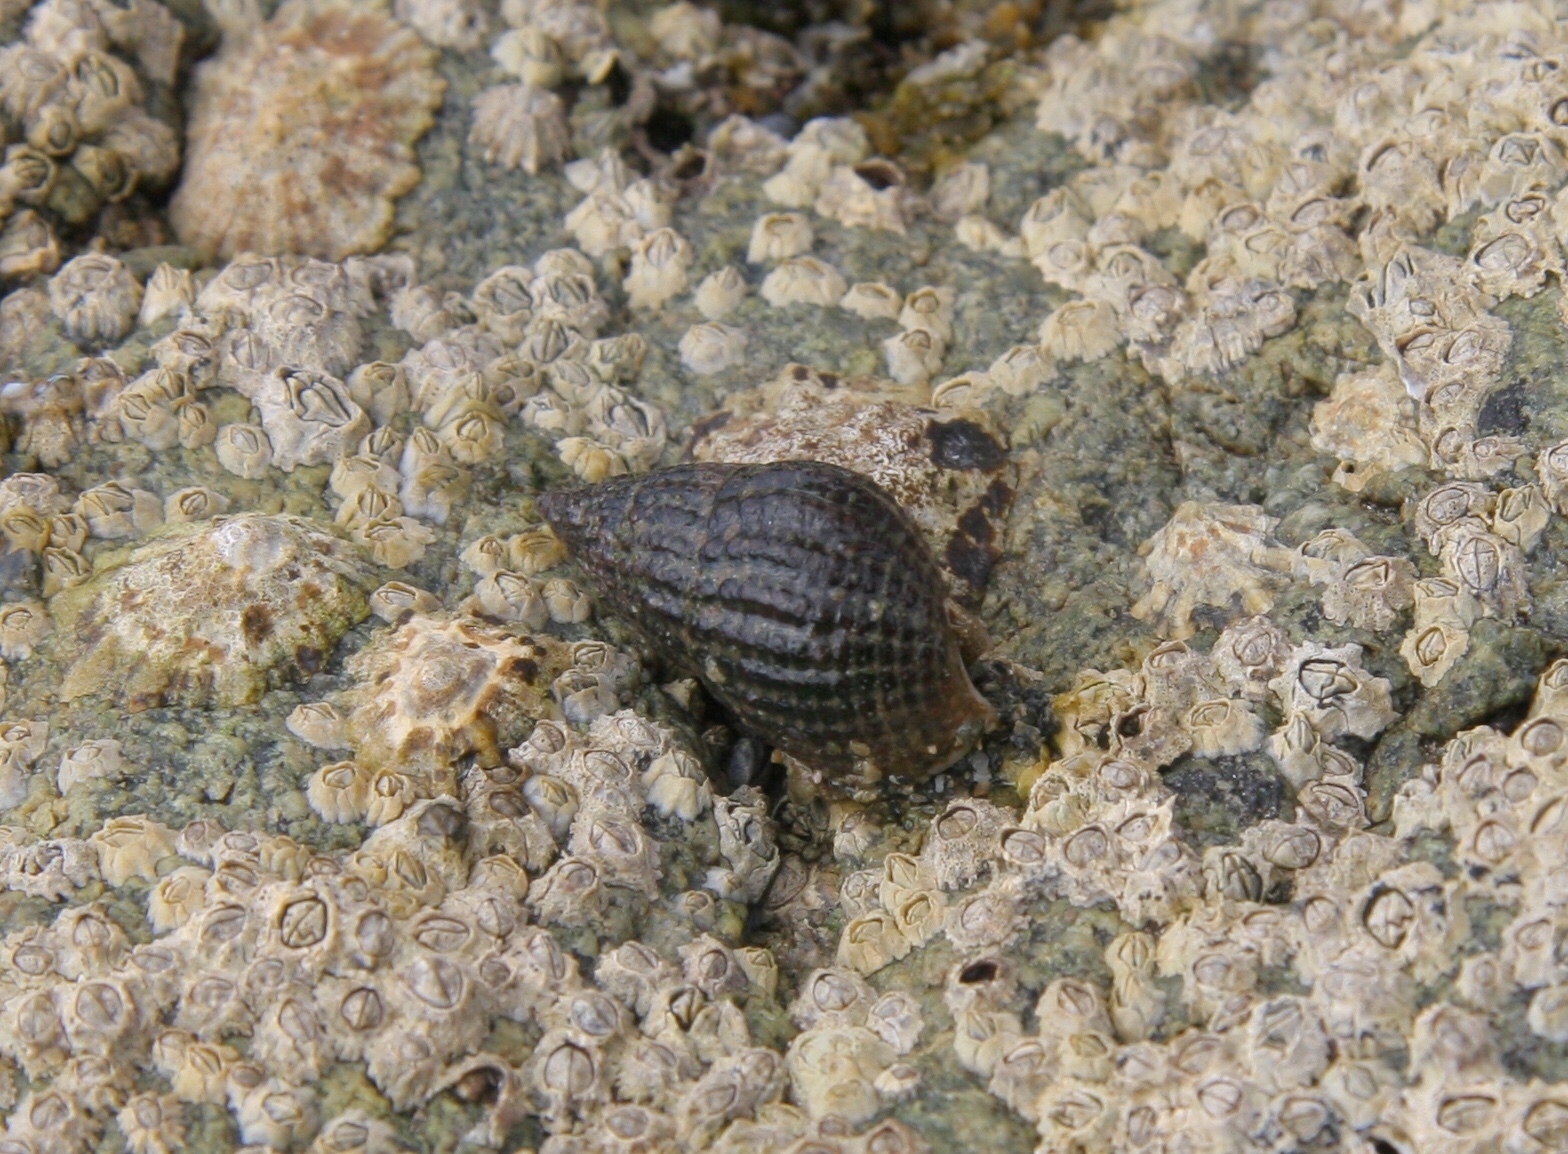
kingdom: Animalia
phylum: Mollusca
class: Gastropoda
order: Neogastropoda
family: Nassariidae
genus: Tritia
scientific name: Tritia reticulata
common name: Netted dog whelk
